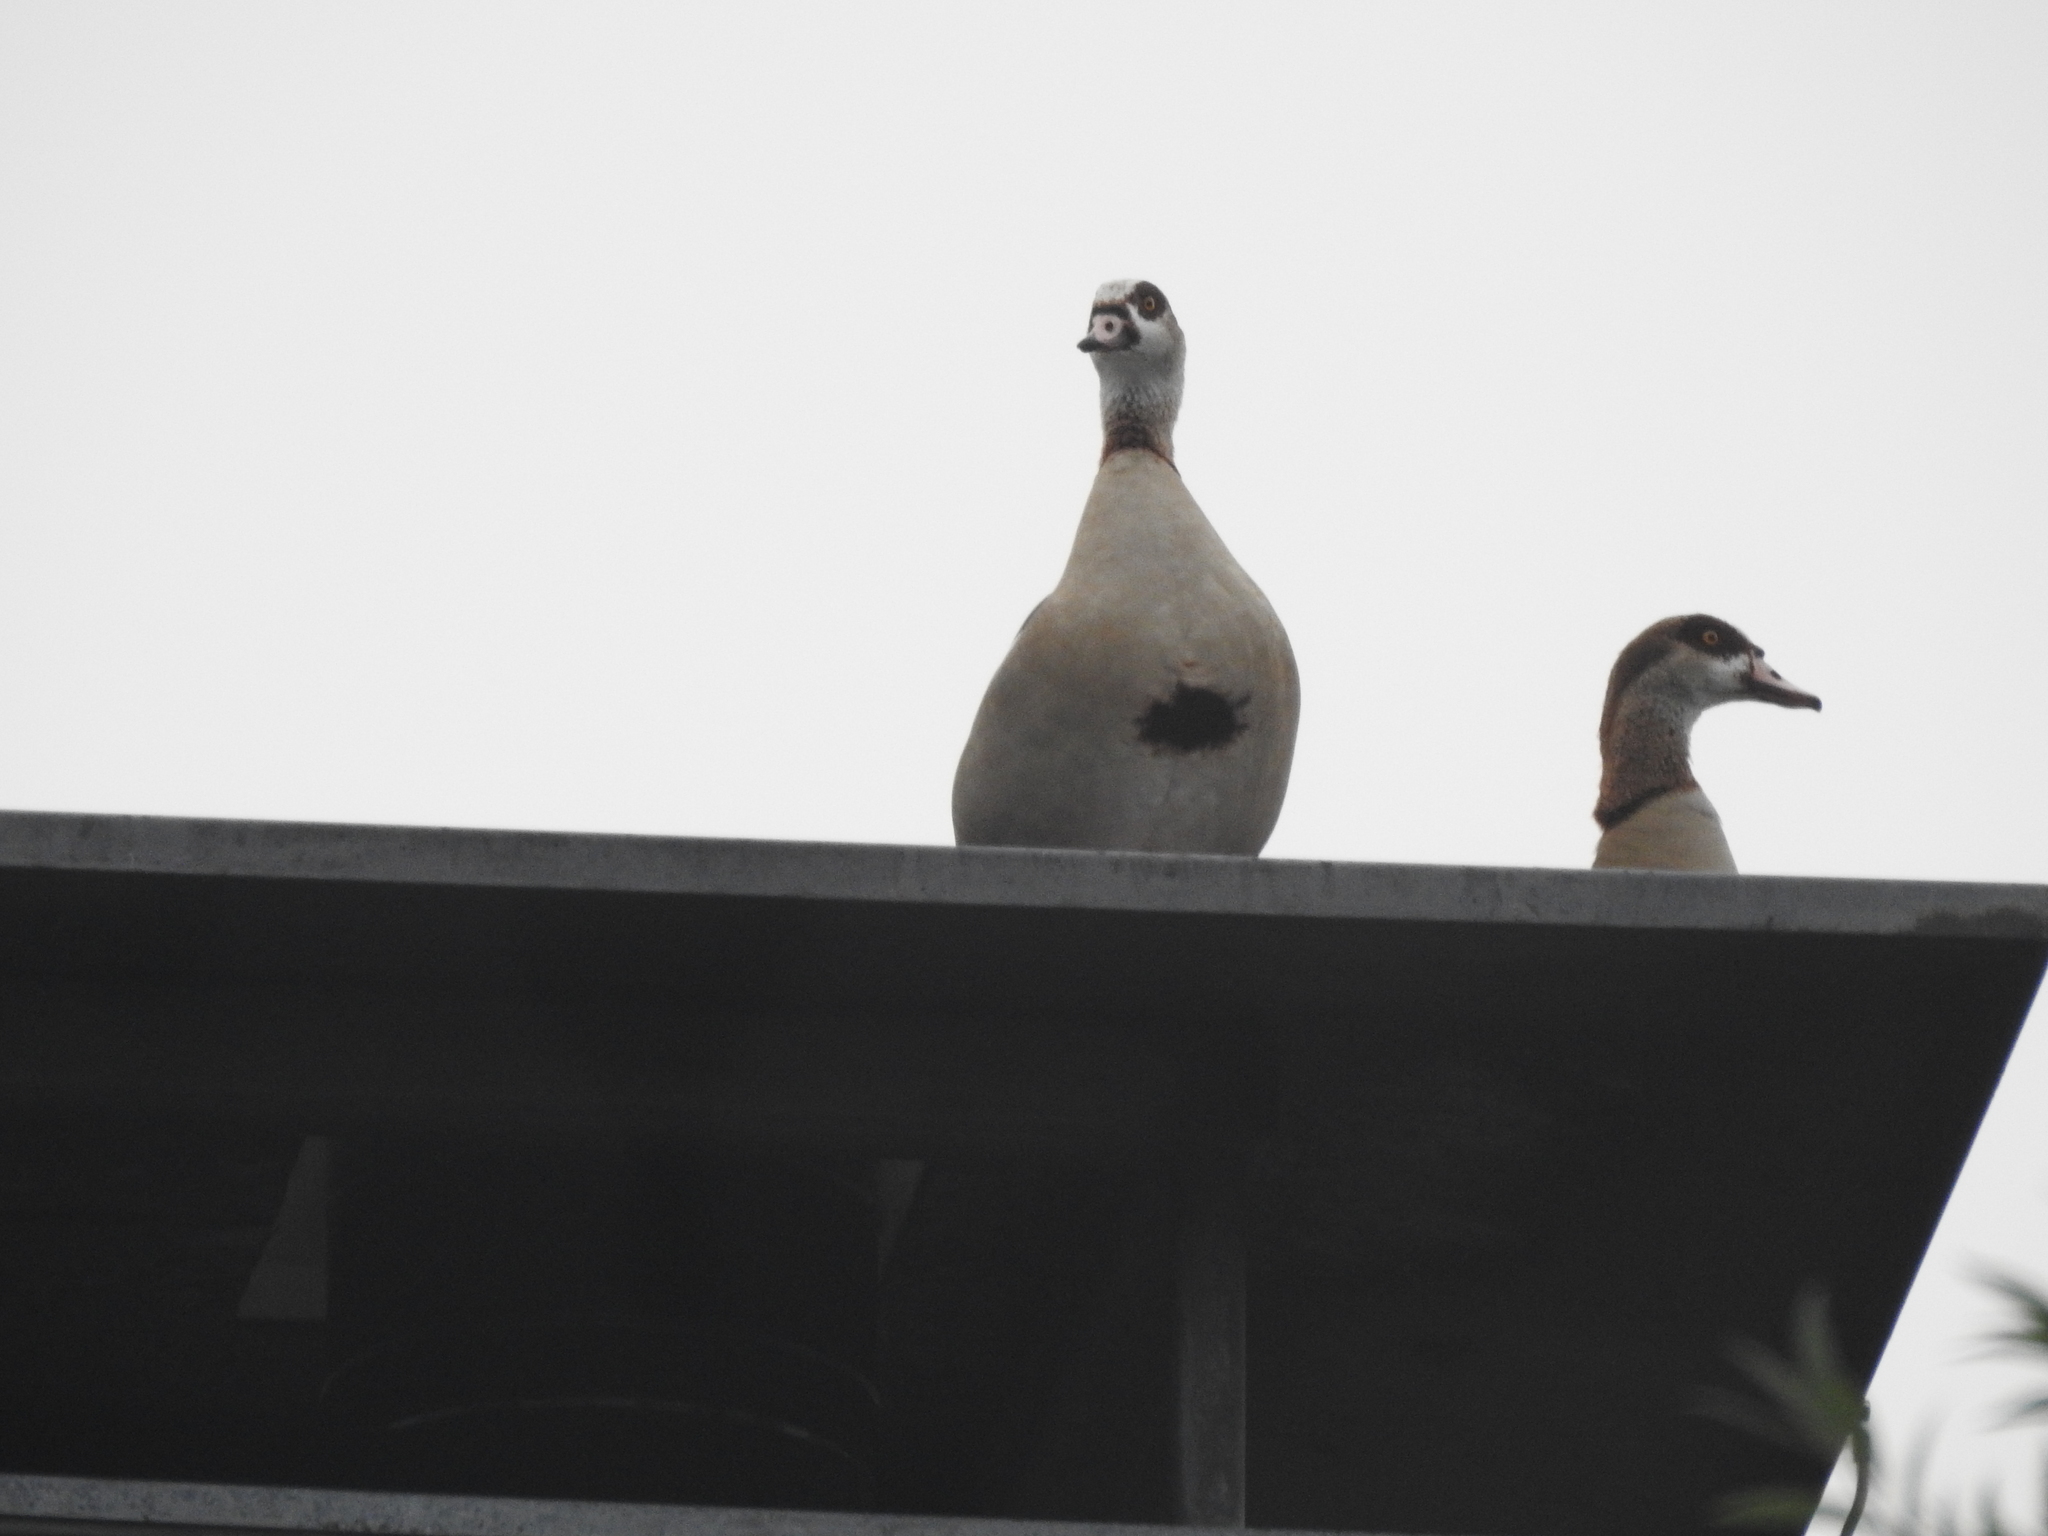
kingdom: Animalia
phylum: Chordata
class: Aves
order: Anseriformes
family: Anatidae
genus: Alopochen
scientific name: Alopochen aegyptiaca
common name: Egyptian goose
